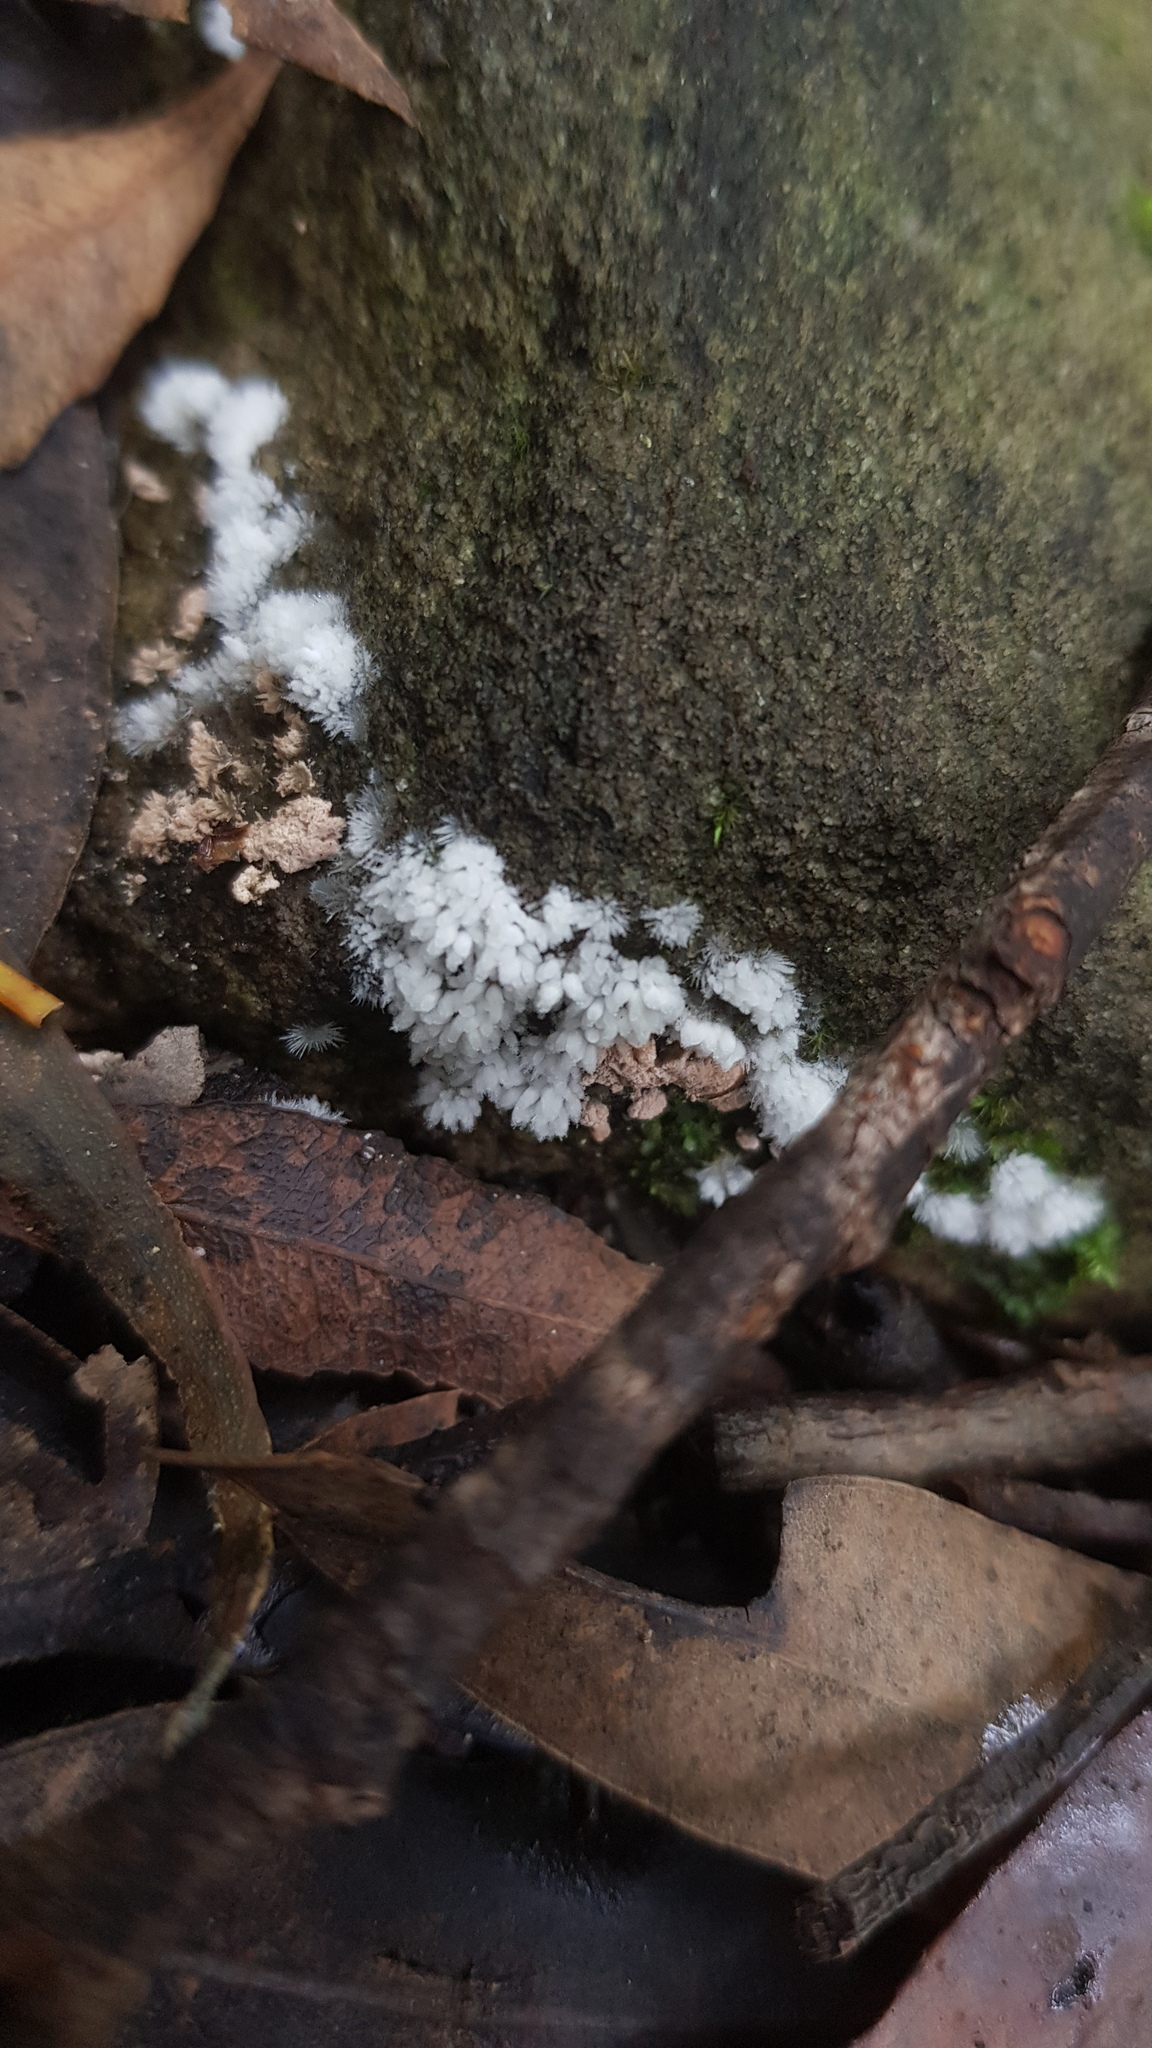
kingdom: Fungi
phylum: Ascomycota
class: Pezizomycetes
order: Pezizales
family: Pezizaceae
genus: Chromelosporiopsis
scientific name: Chromelosporiopsis carnea
